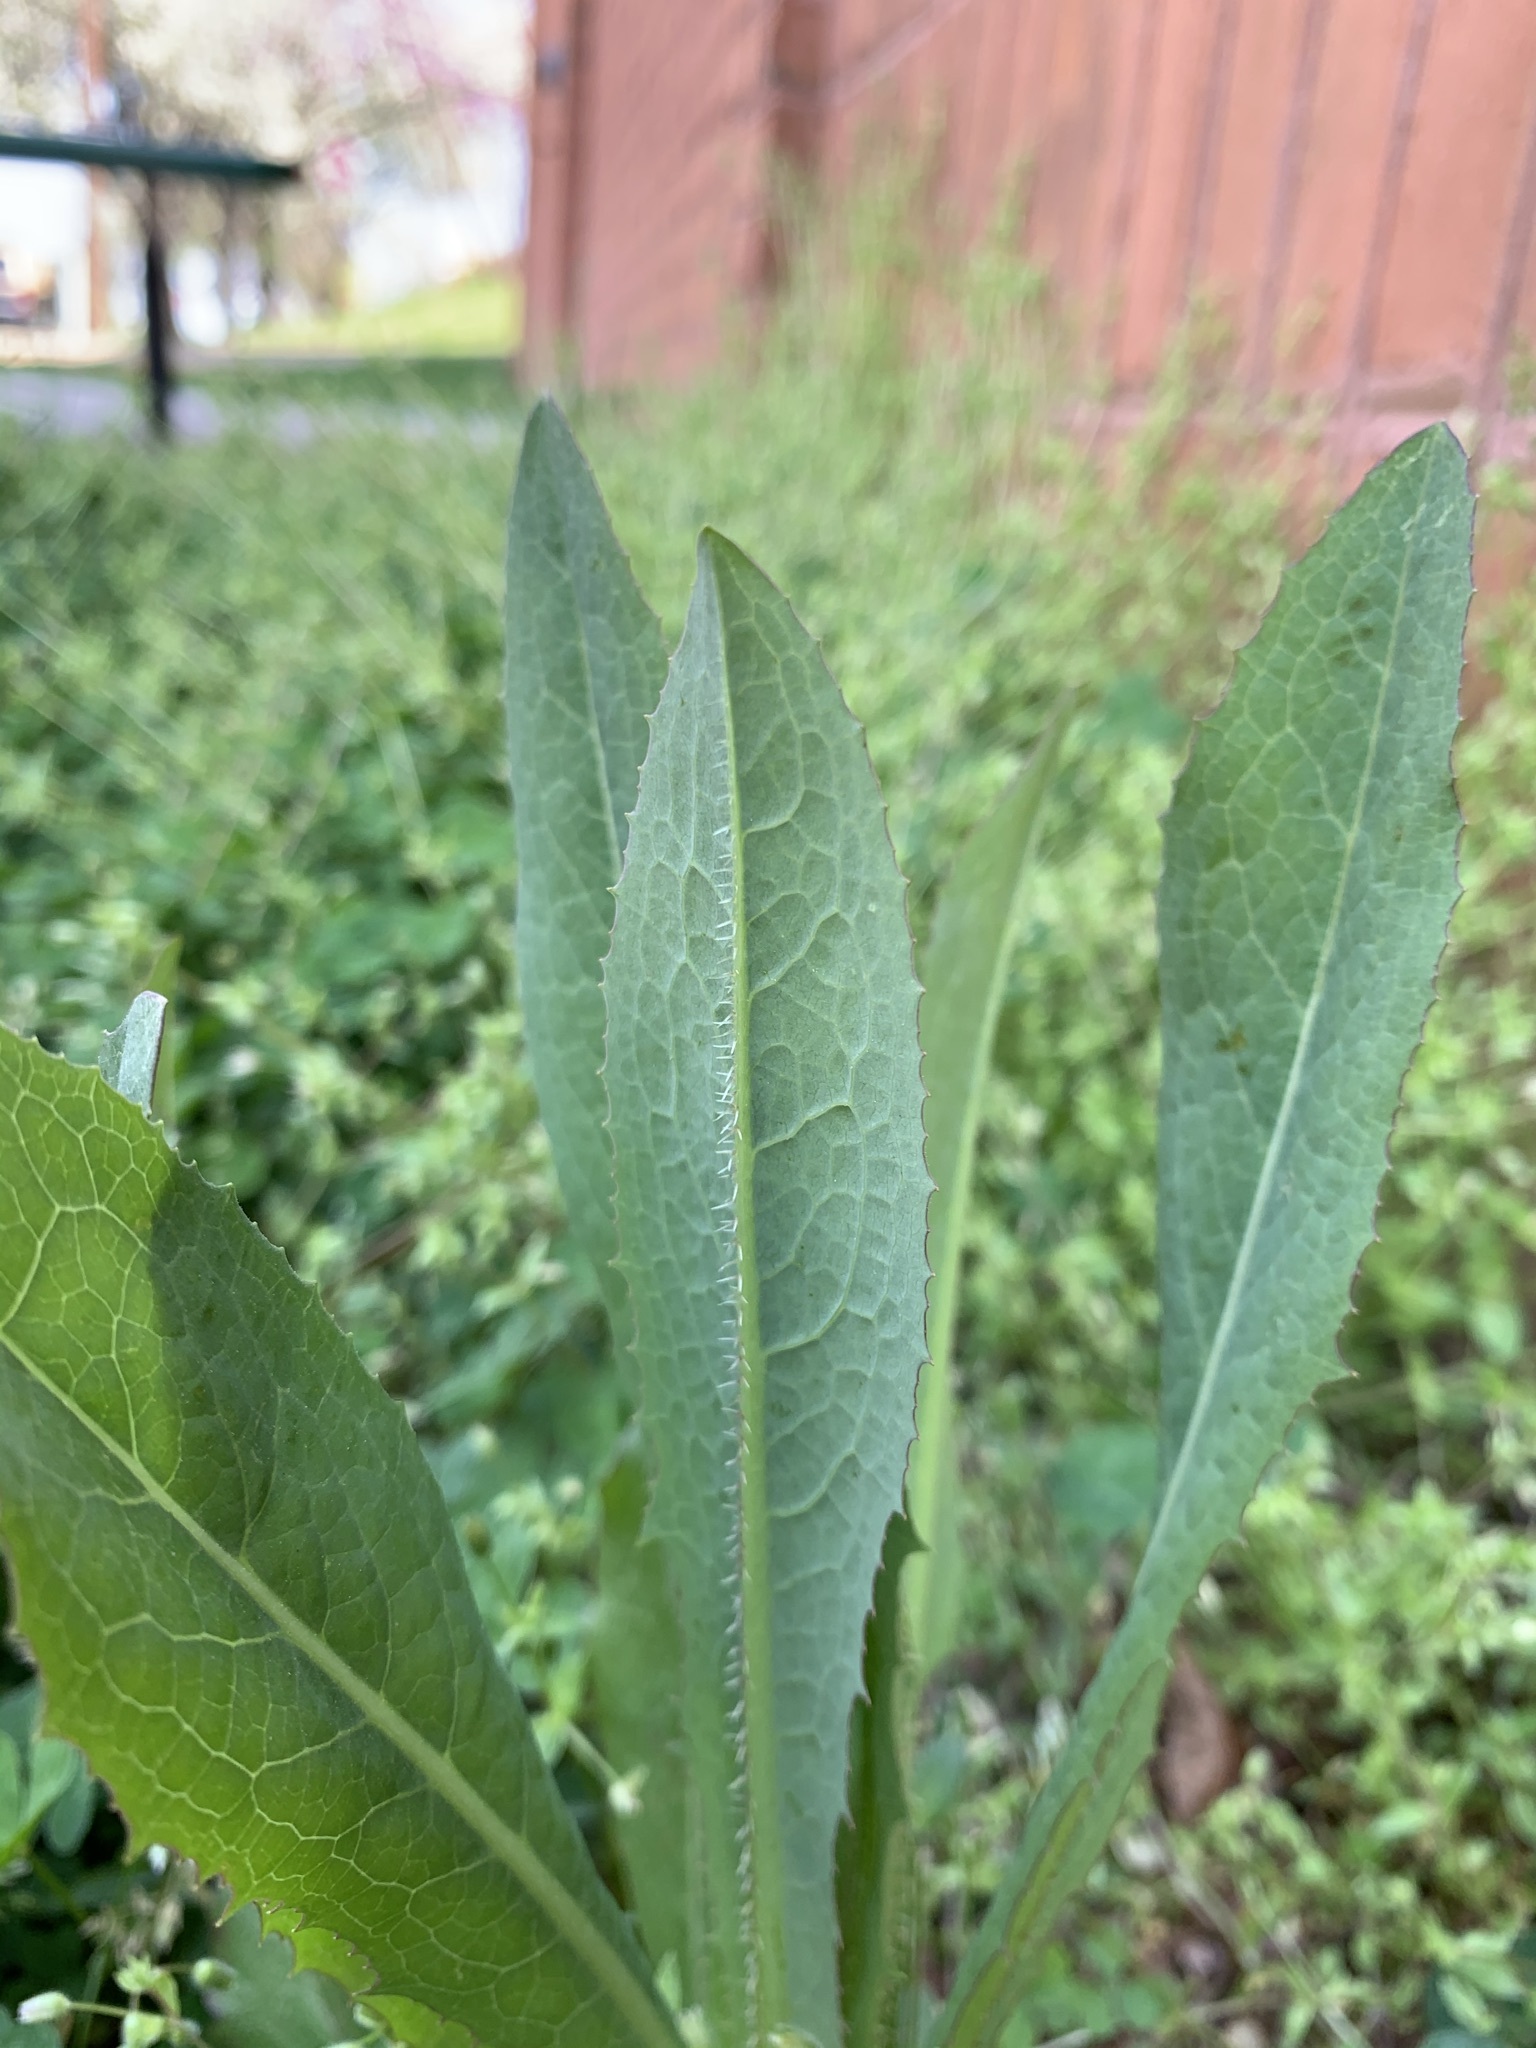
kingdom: Plantae
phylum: Tracheophyta
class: Magnoliopsida
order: Asterales
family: Asteraceae
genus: Lactuca
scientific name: Lactuca serriola
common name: Prickly lettuce
